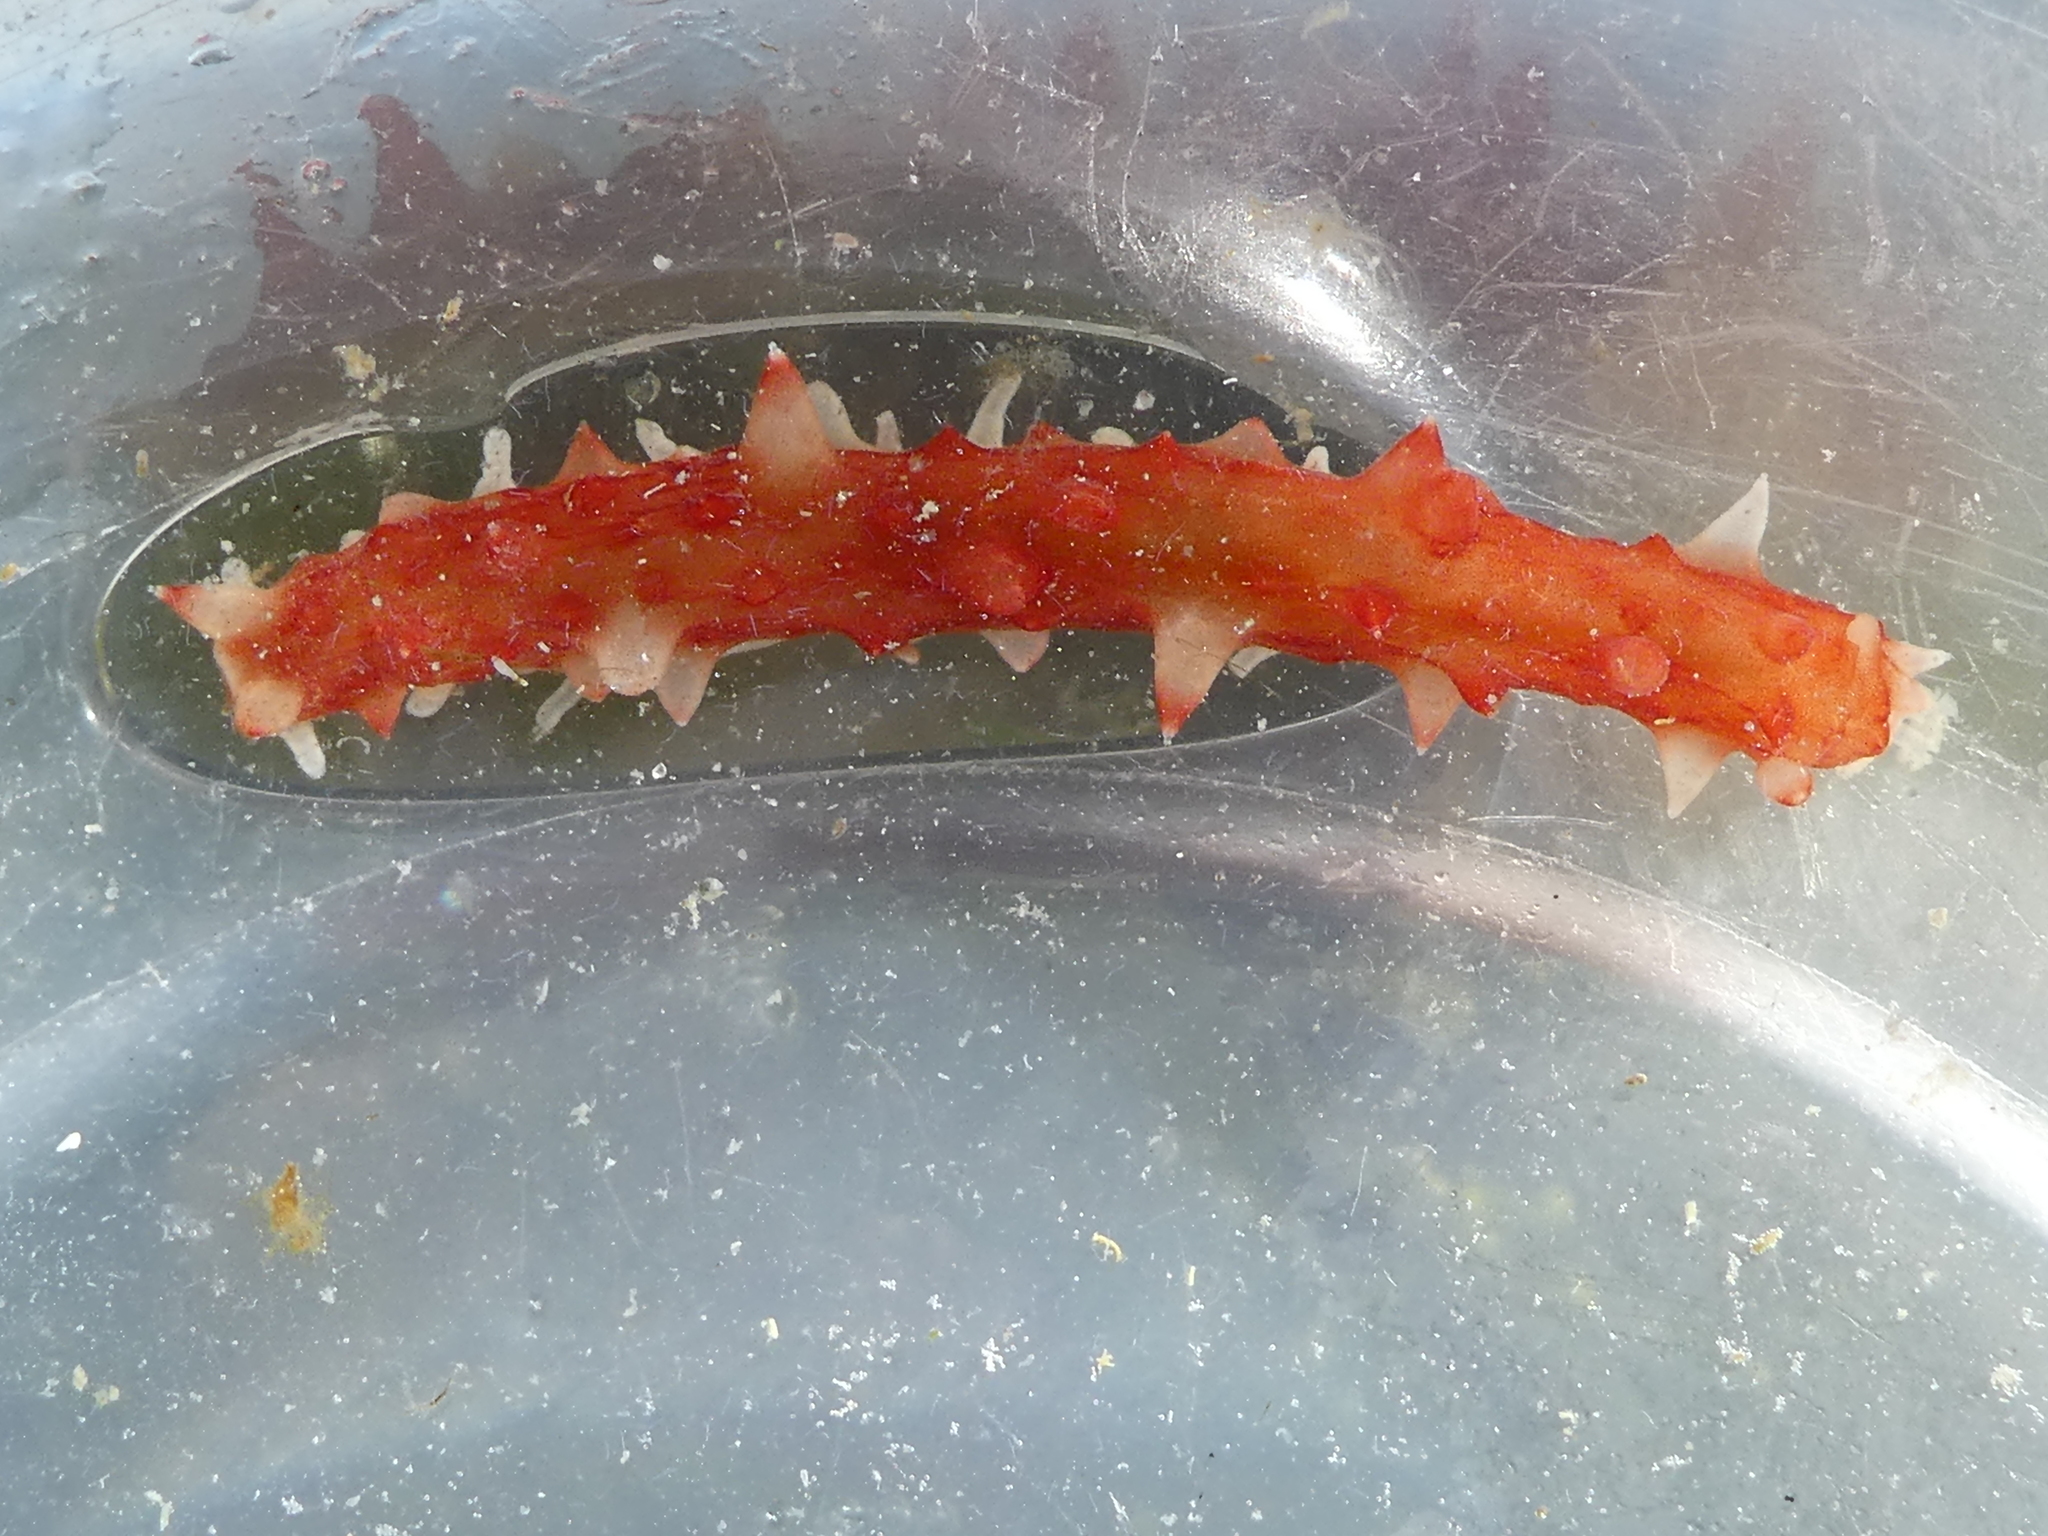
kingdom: Animalia
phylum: Echinodermata
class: Holothuroidea
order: Synallactida
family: Stichopodidae
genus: Apostichopus
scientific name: Apostichopus californicus
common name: California sea cucumber
